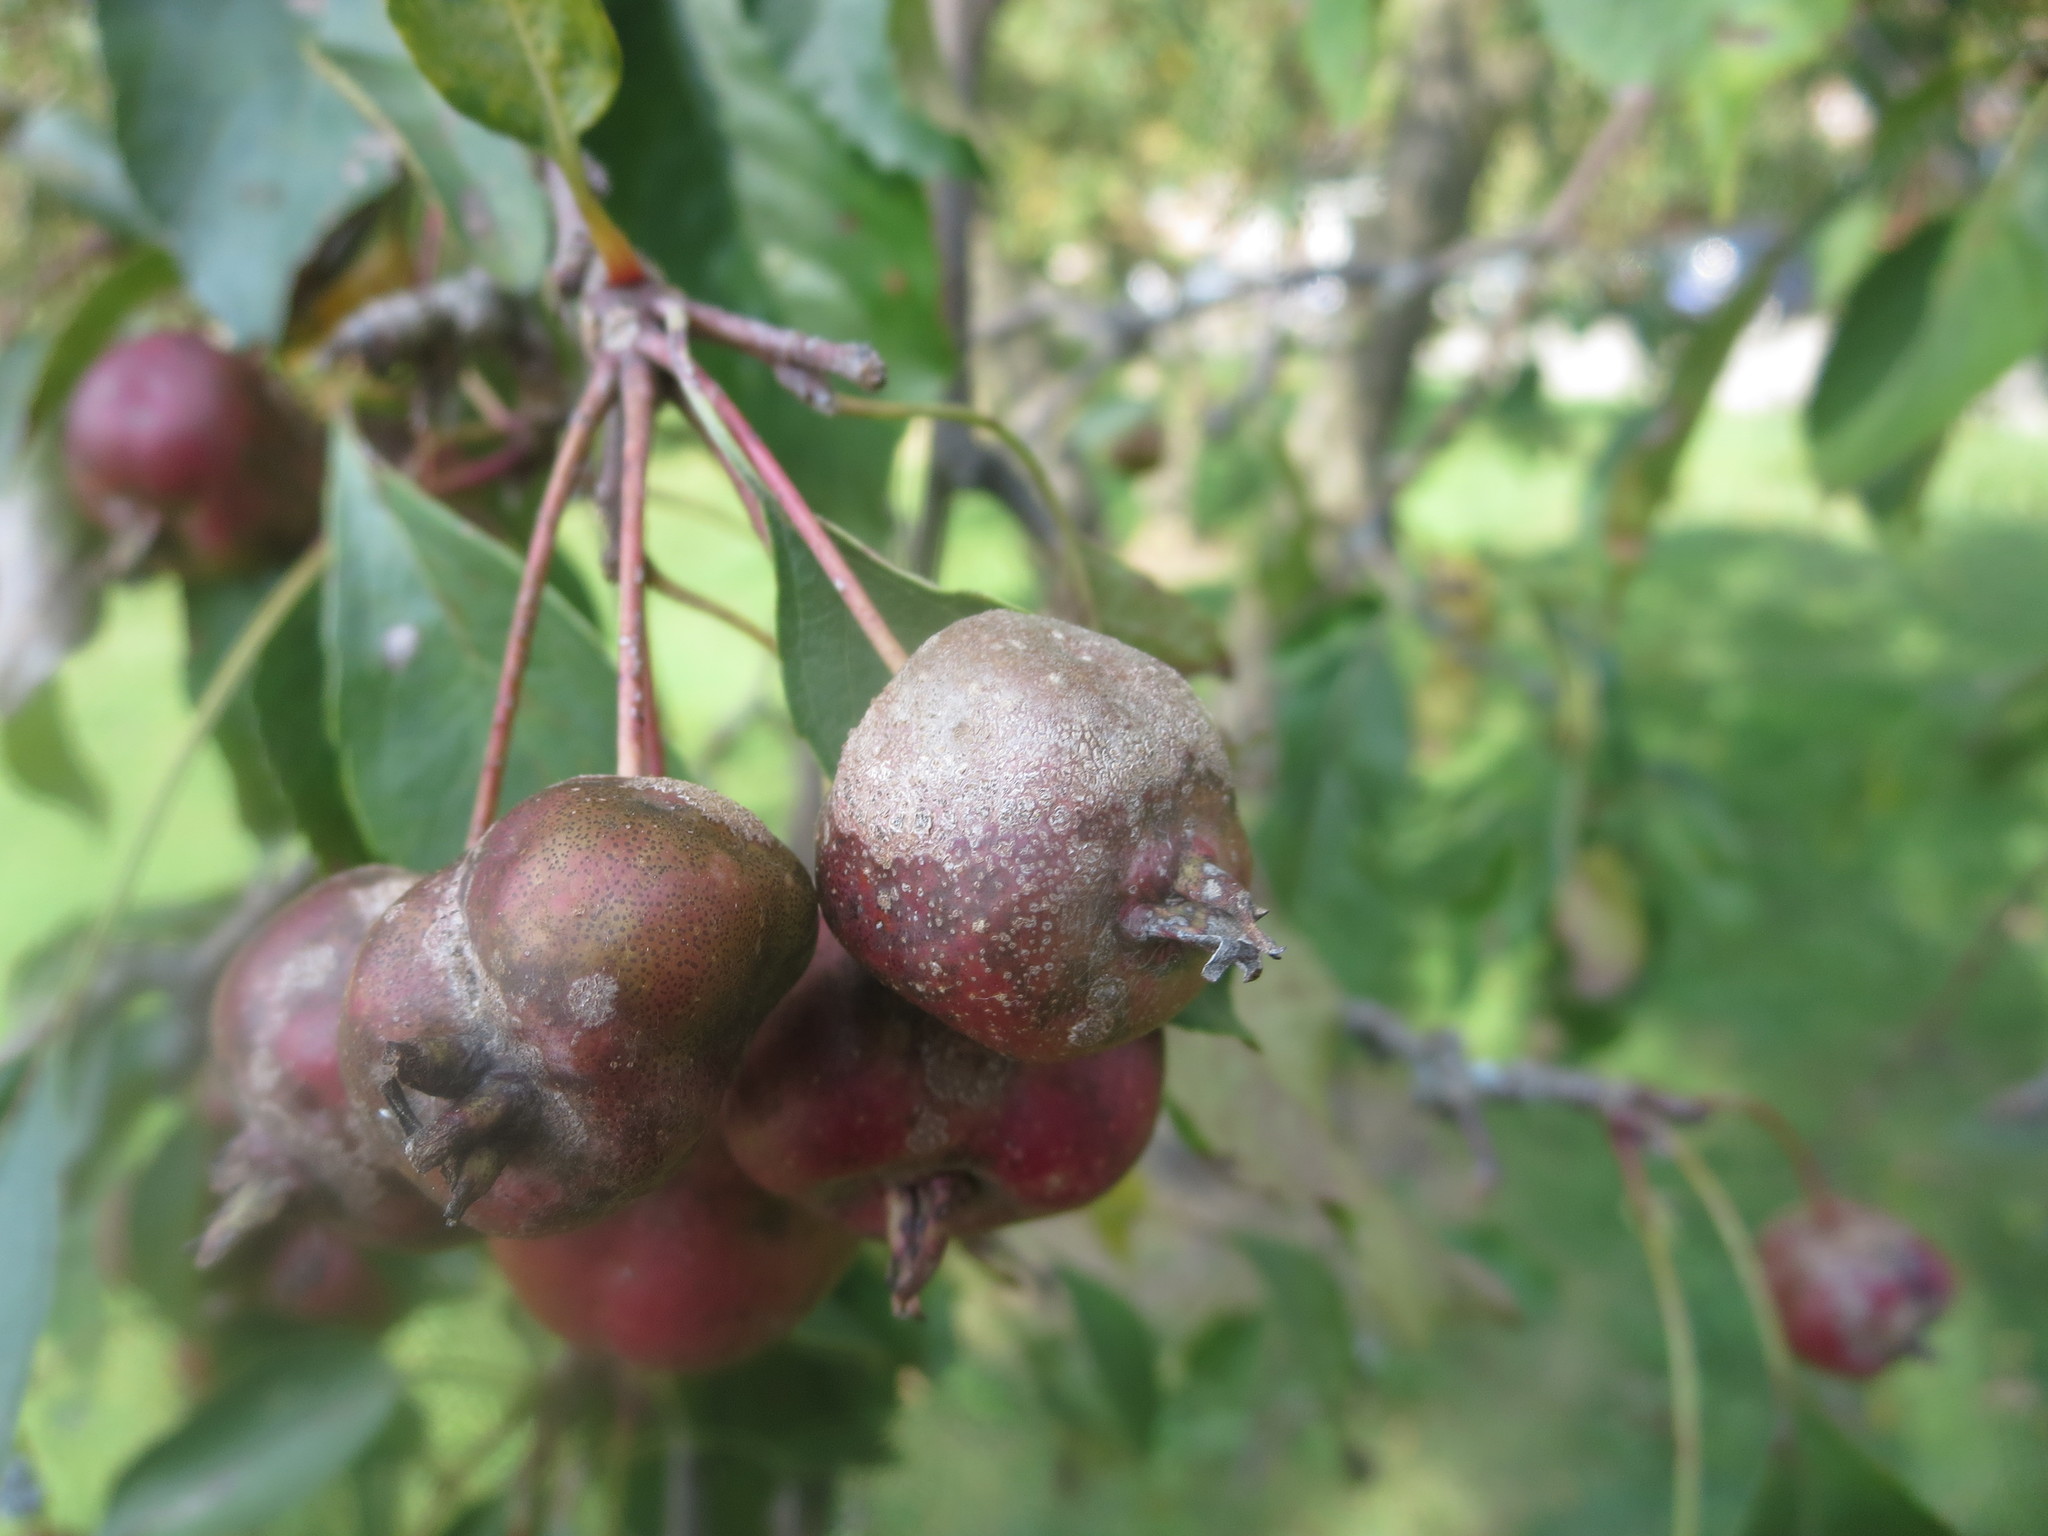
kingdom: Fungi
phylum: Ascomycota
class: Dothideomycetes
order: Venturiales
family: Venturiaceae
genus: Venturia
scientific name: Venturia inaequalis
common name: Apple scab
